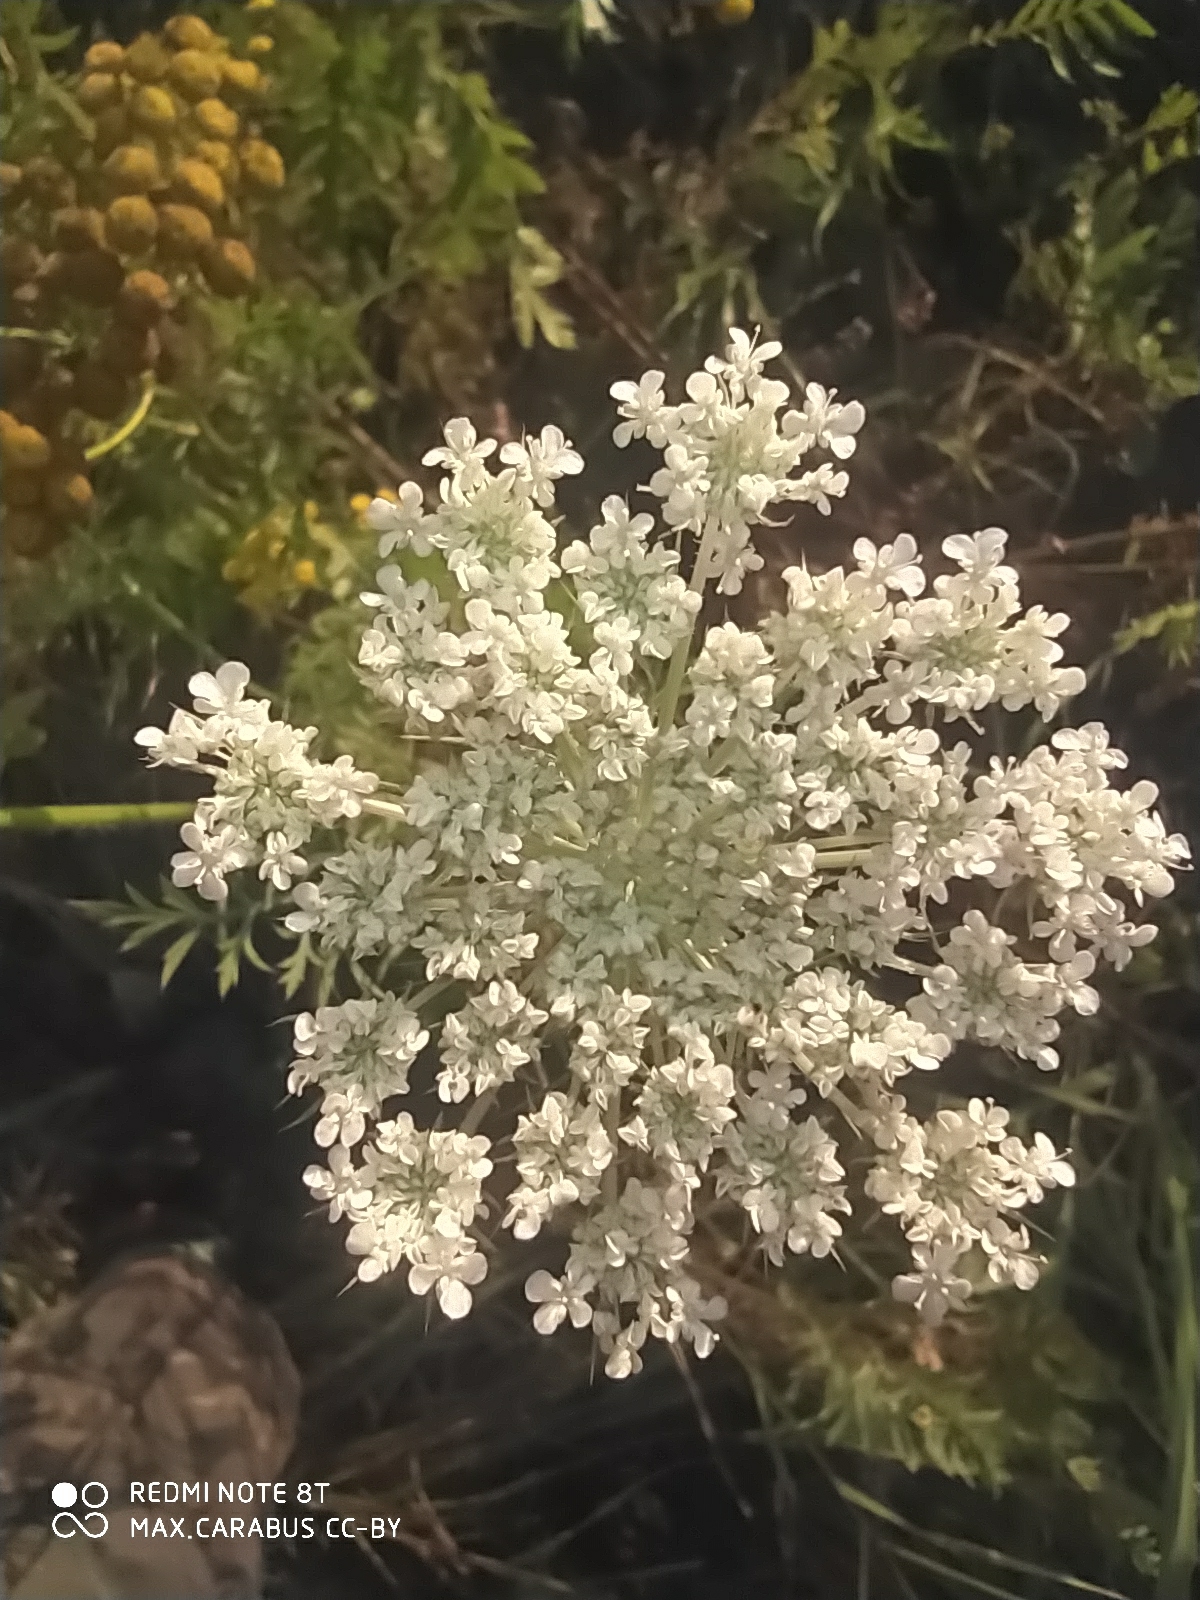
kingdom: Plantae
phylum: Tracheophyta
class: Magnoliopsida
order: Apiales
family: Apiaceae
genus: Daucus
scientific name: Daucus carota
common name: Wild carrot
